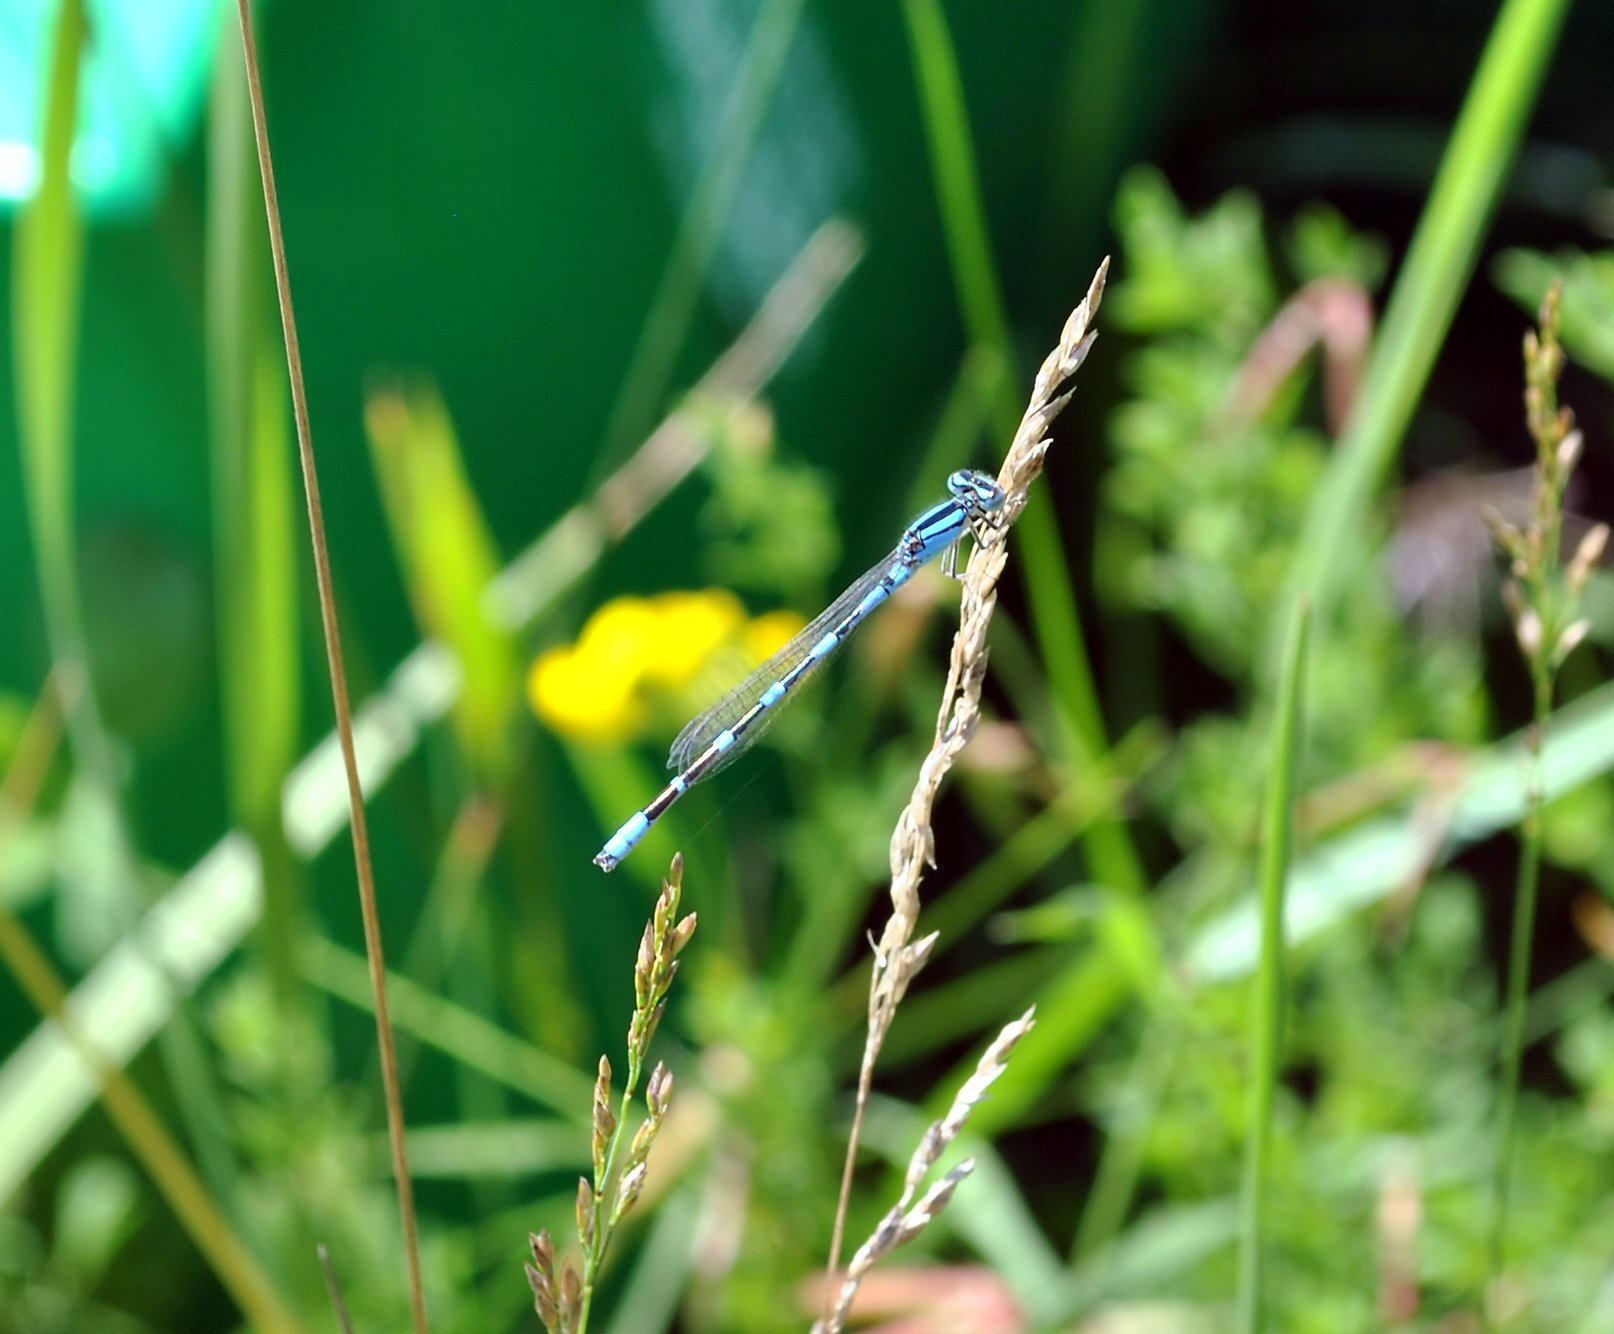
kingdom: Animalia
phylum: Arthropoda
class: Insecta
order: Odonata
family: Coenagrionidae
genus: Enallagma
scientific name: Enallagma carunculatum
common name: Tule bluet
